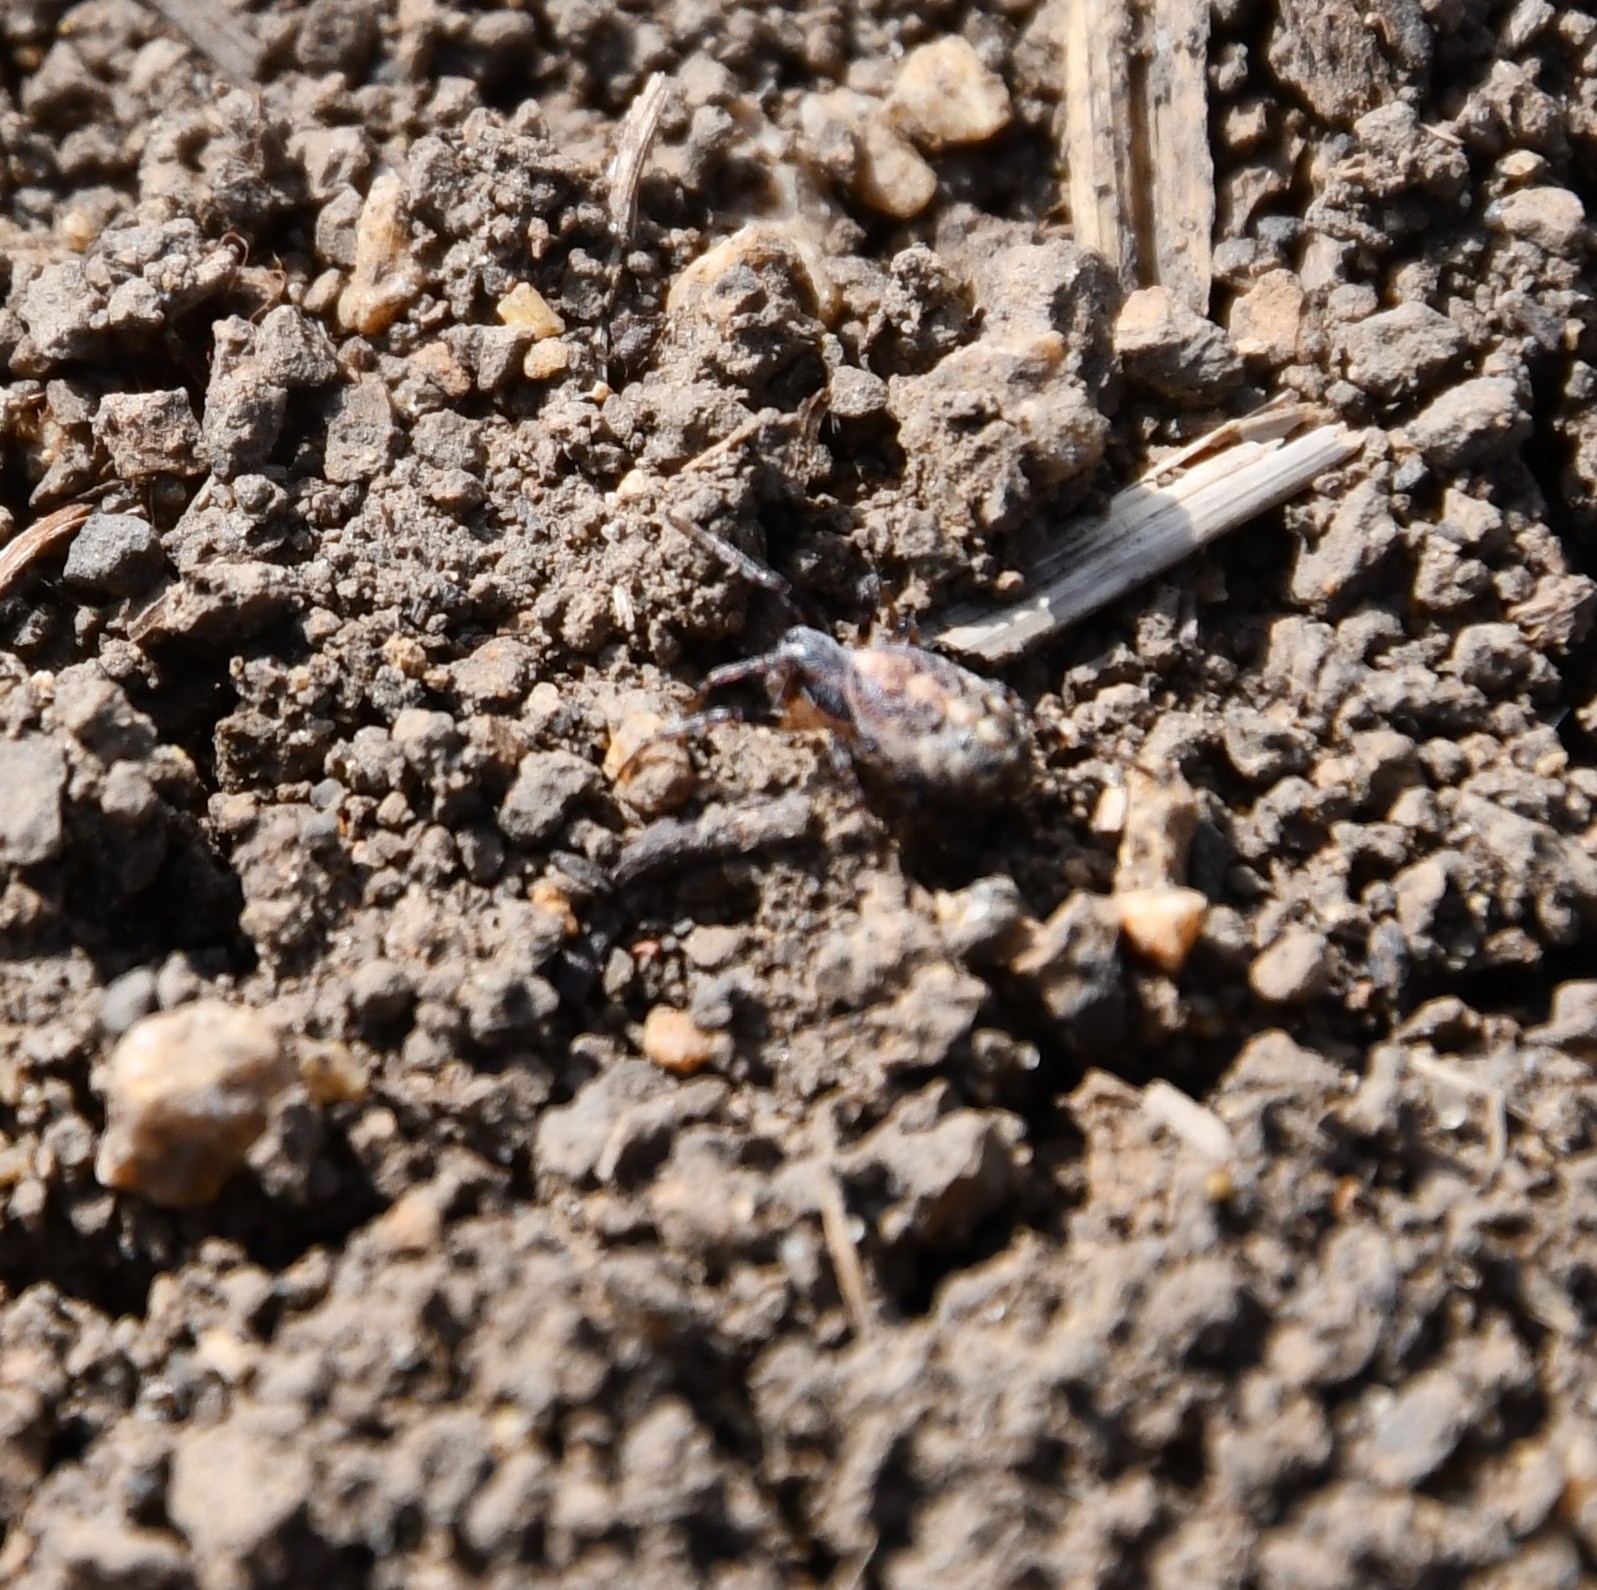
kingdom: Animalia
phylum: Arthropoda
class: Arachnida
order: Araneae
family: Araneidae
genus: Cercidia
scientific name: Cercidia prominens
